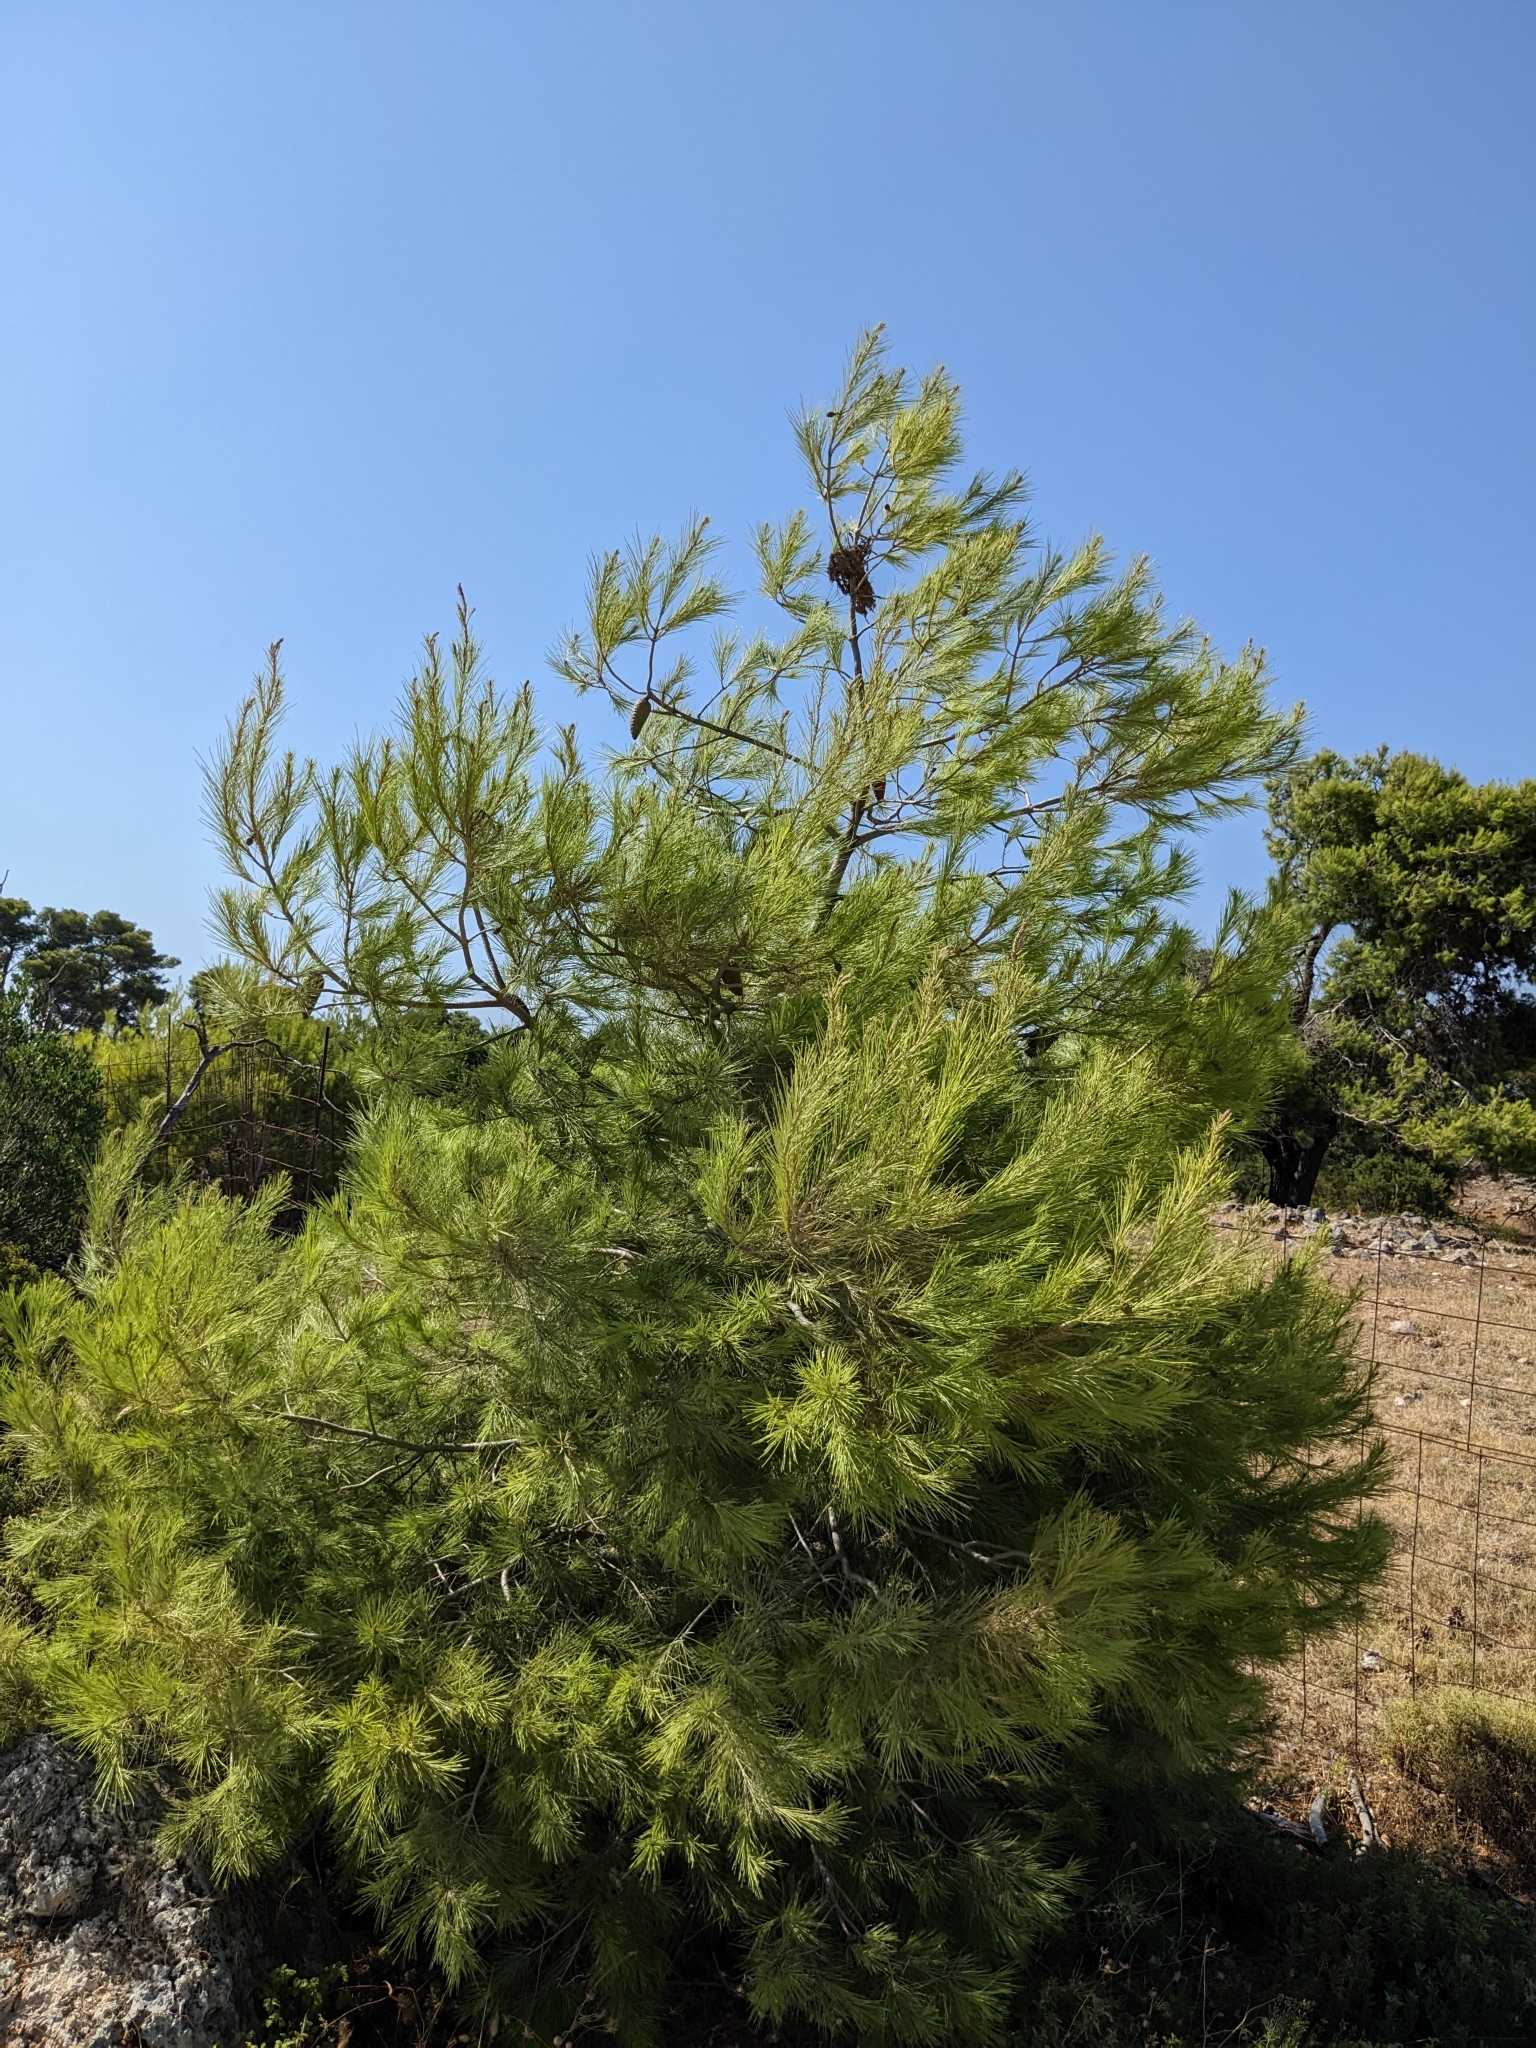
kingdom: Plantae
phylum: Tracheophyta
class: Pinopsida
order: Pinales
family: Pinaceae
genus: Pinus
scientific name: Pinus halepensis
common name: Aleppo pine
